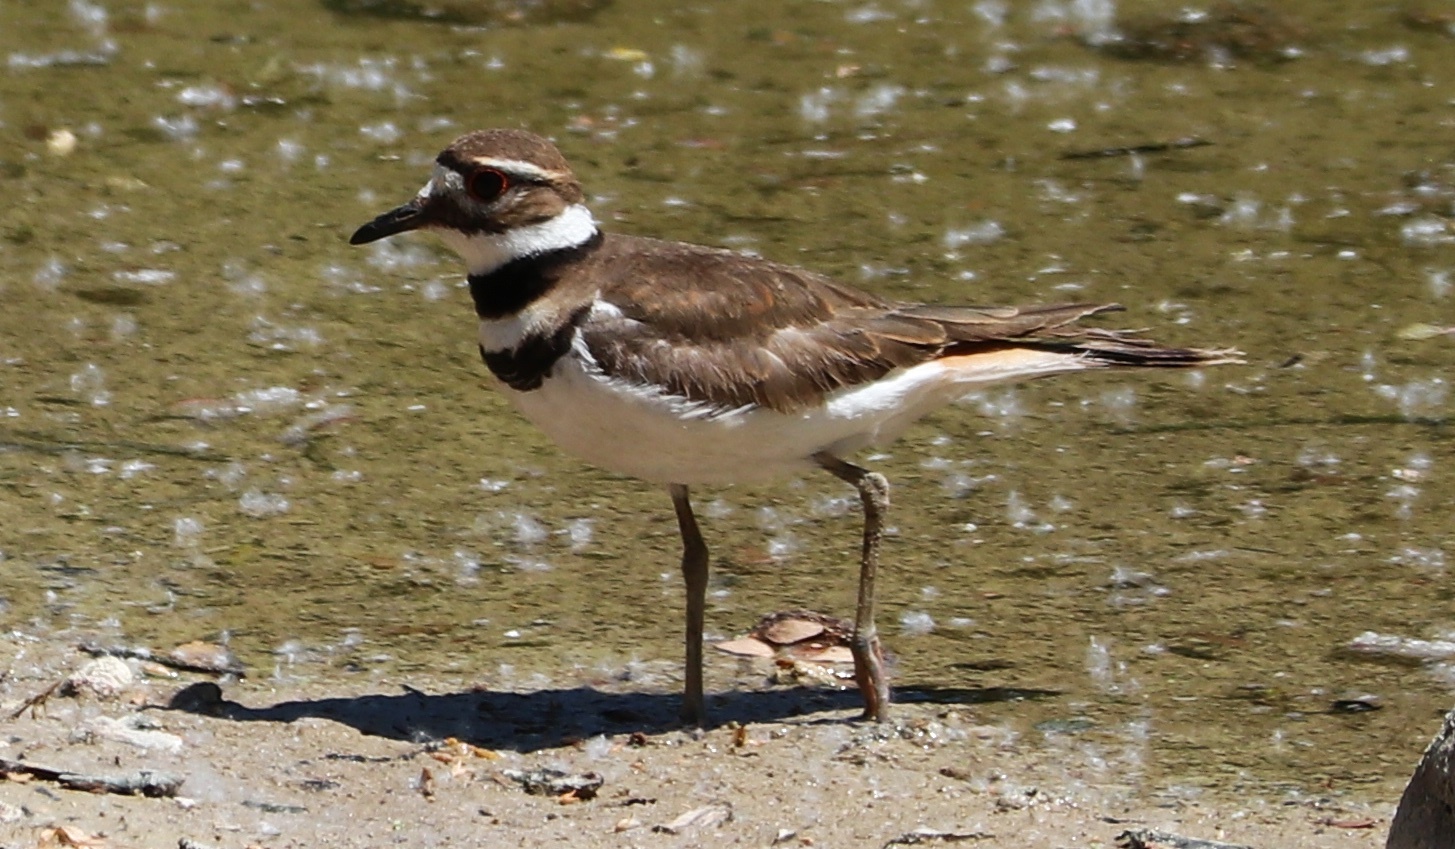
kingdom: Animalia
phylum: Chordata
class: Aves
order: Charadriiformes
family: Charadriidae
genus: Charadrius
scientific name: Charadrius vociferus
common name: Killdeer
